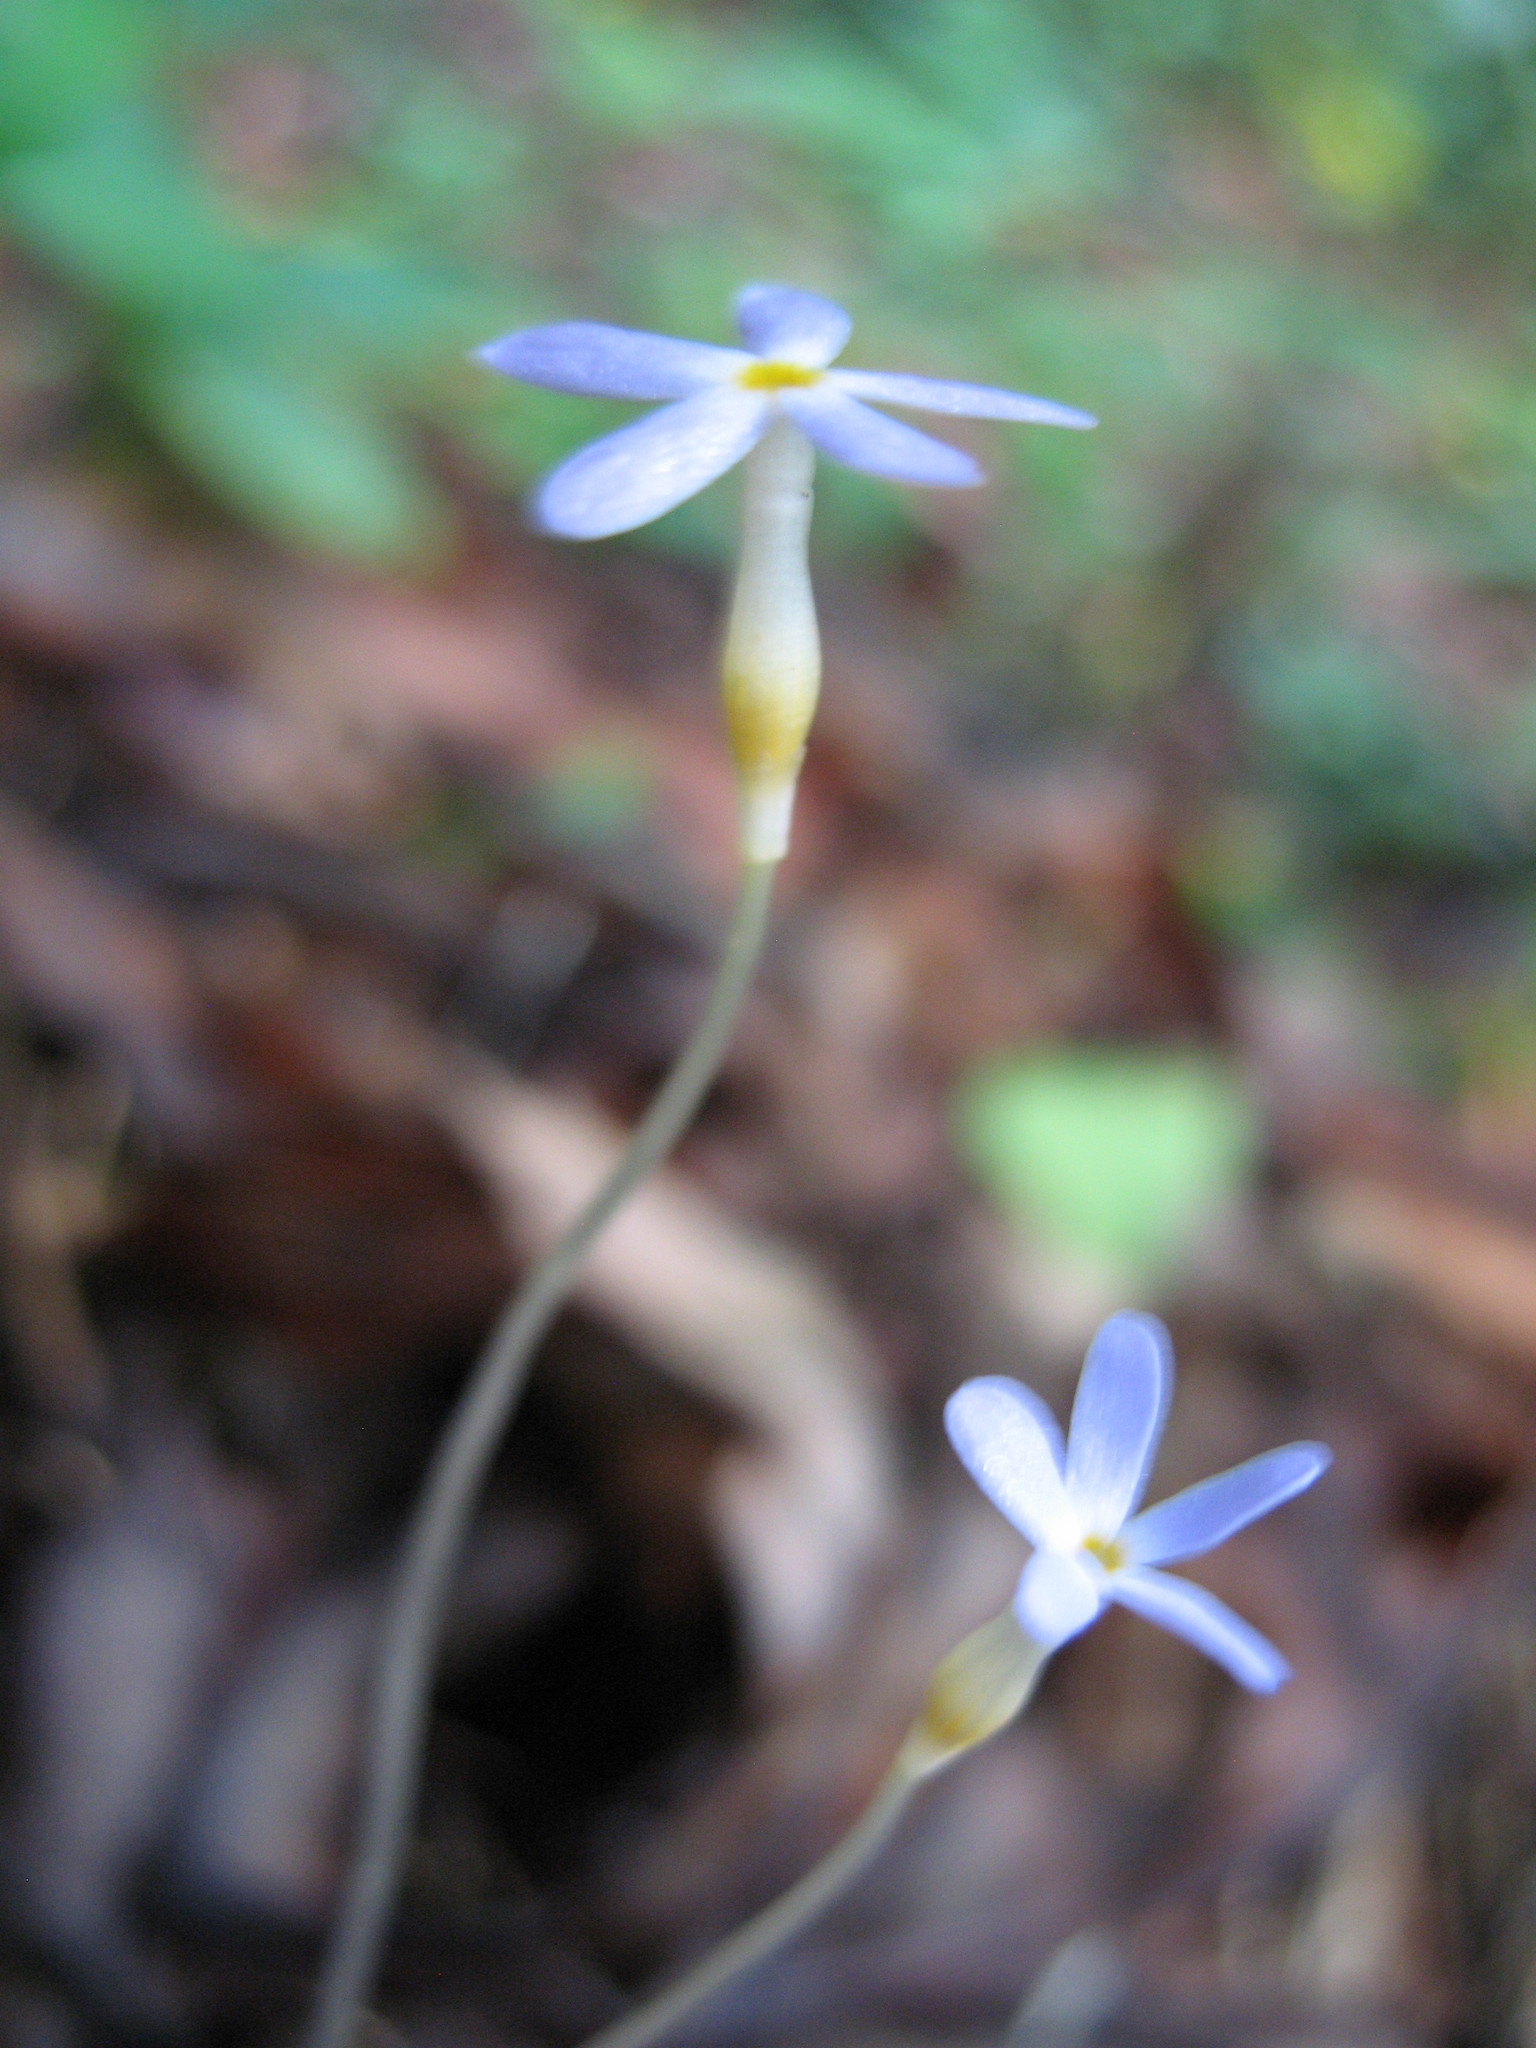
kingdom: Plantae
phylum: Tracheophyta
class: Magnoliopsida
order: Gentianales
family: Gentianaceae
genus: Voyria
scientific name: Voyria tenella
